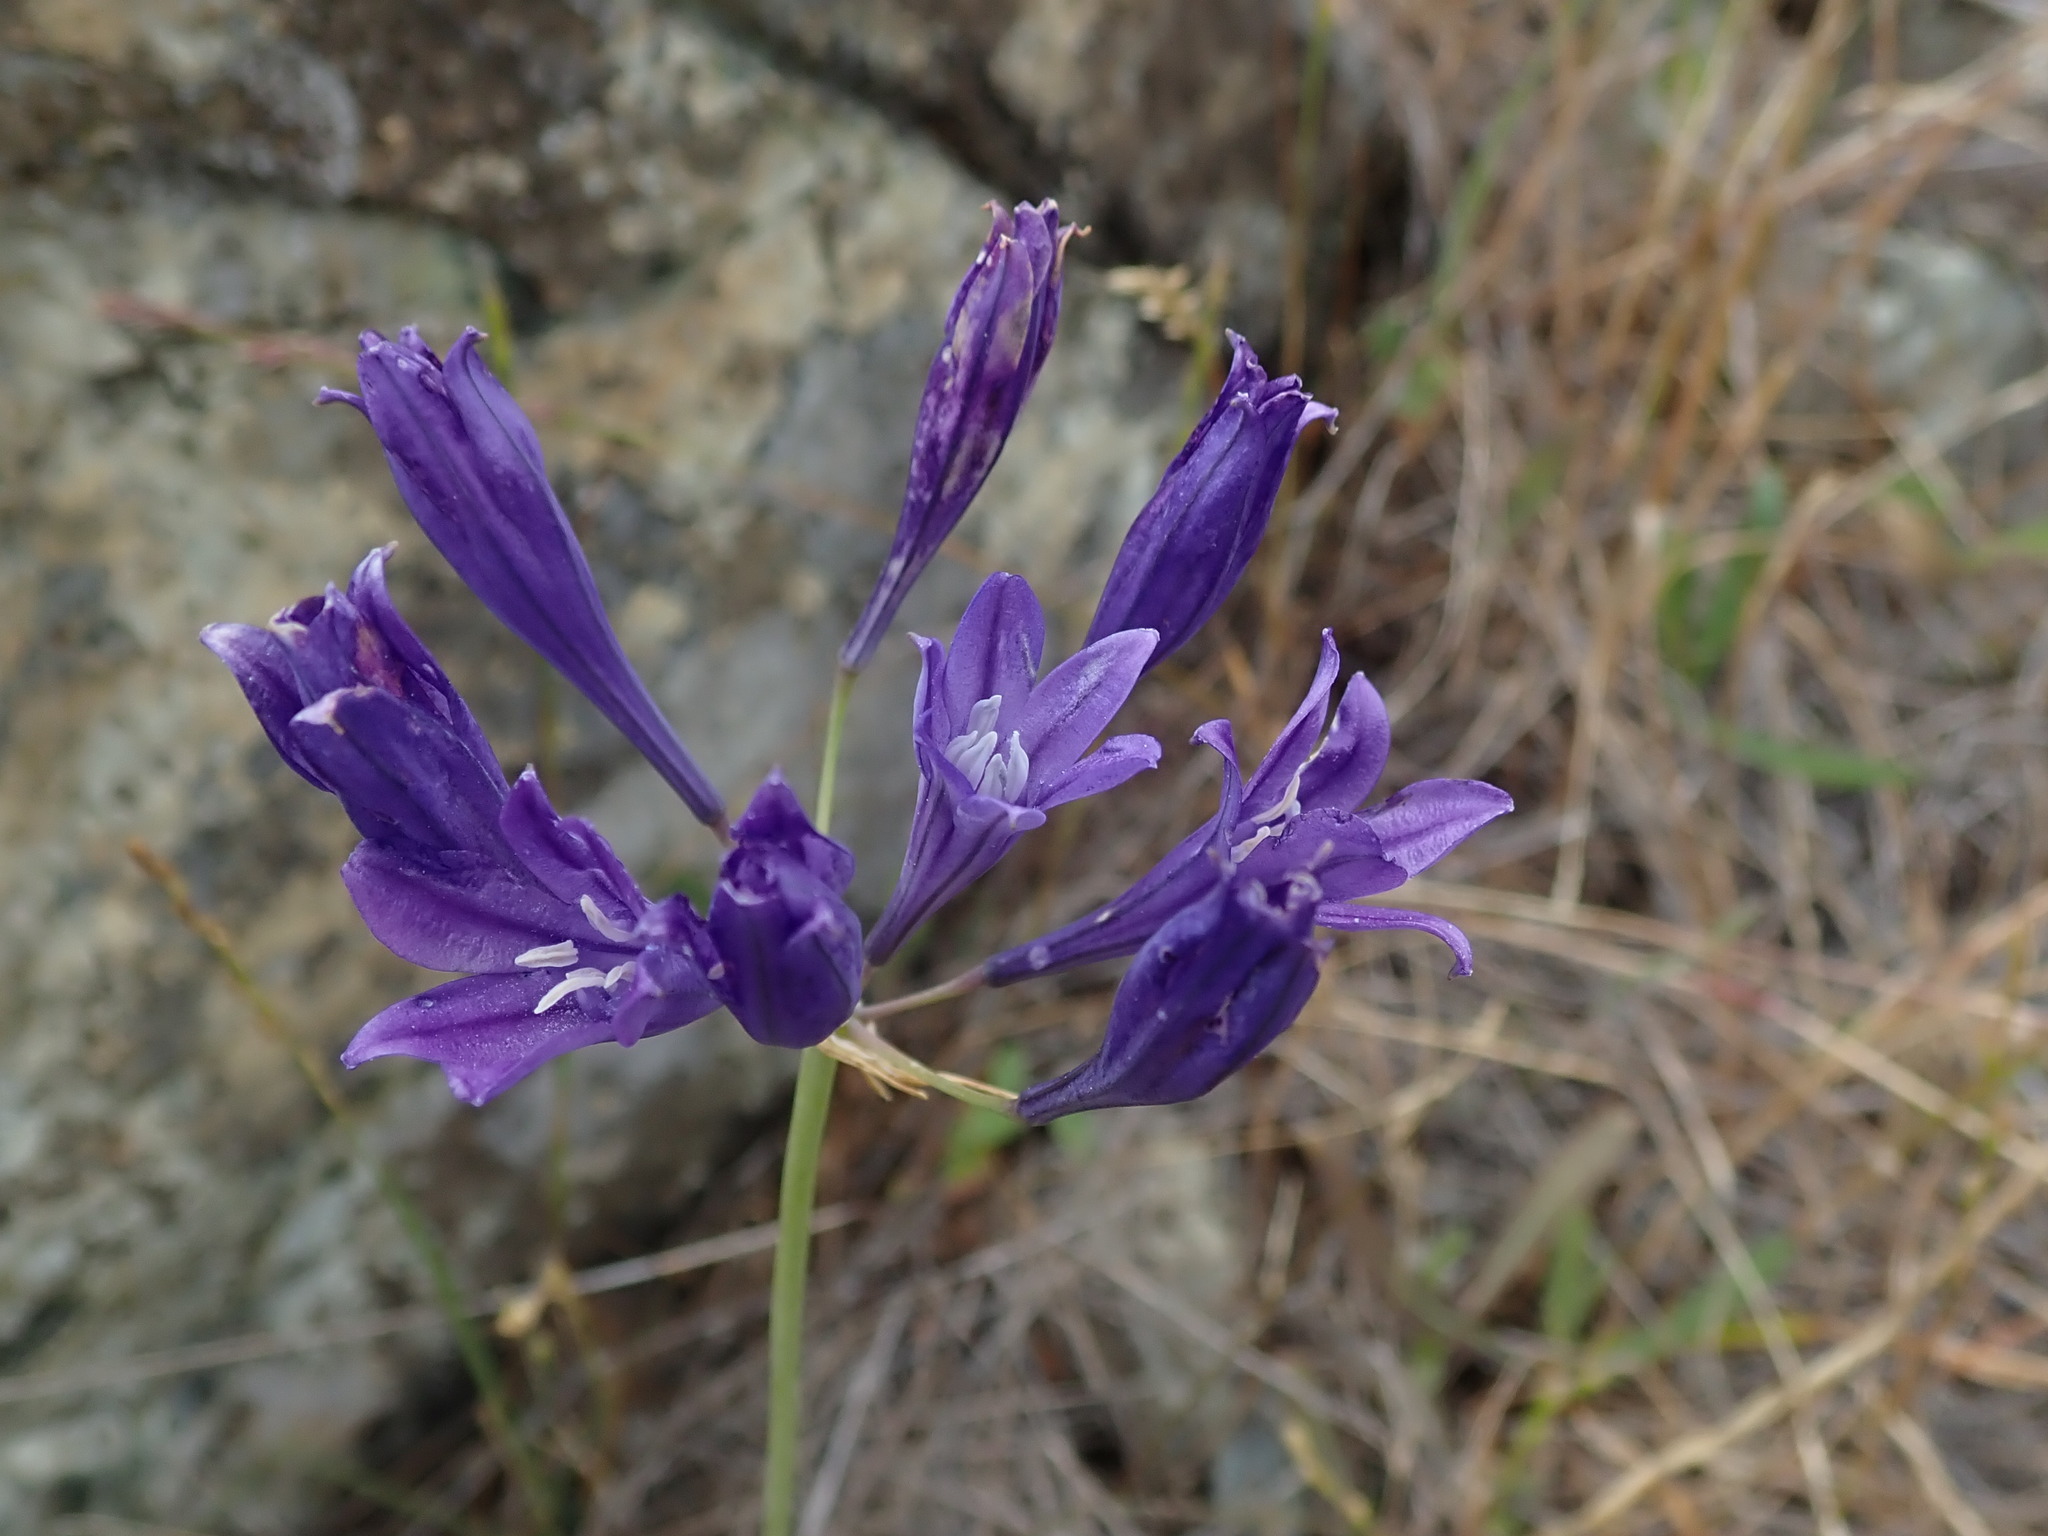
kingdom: Plantae
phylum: Tracheophyta
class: Liliopsida
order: Asparagales
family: Asparagaceae
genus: Triteleia
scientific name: Triteleia laxa
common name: Triplet-lily
